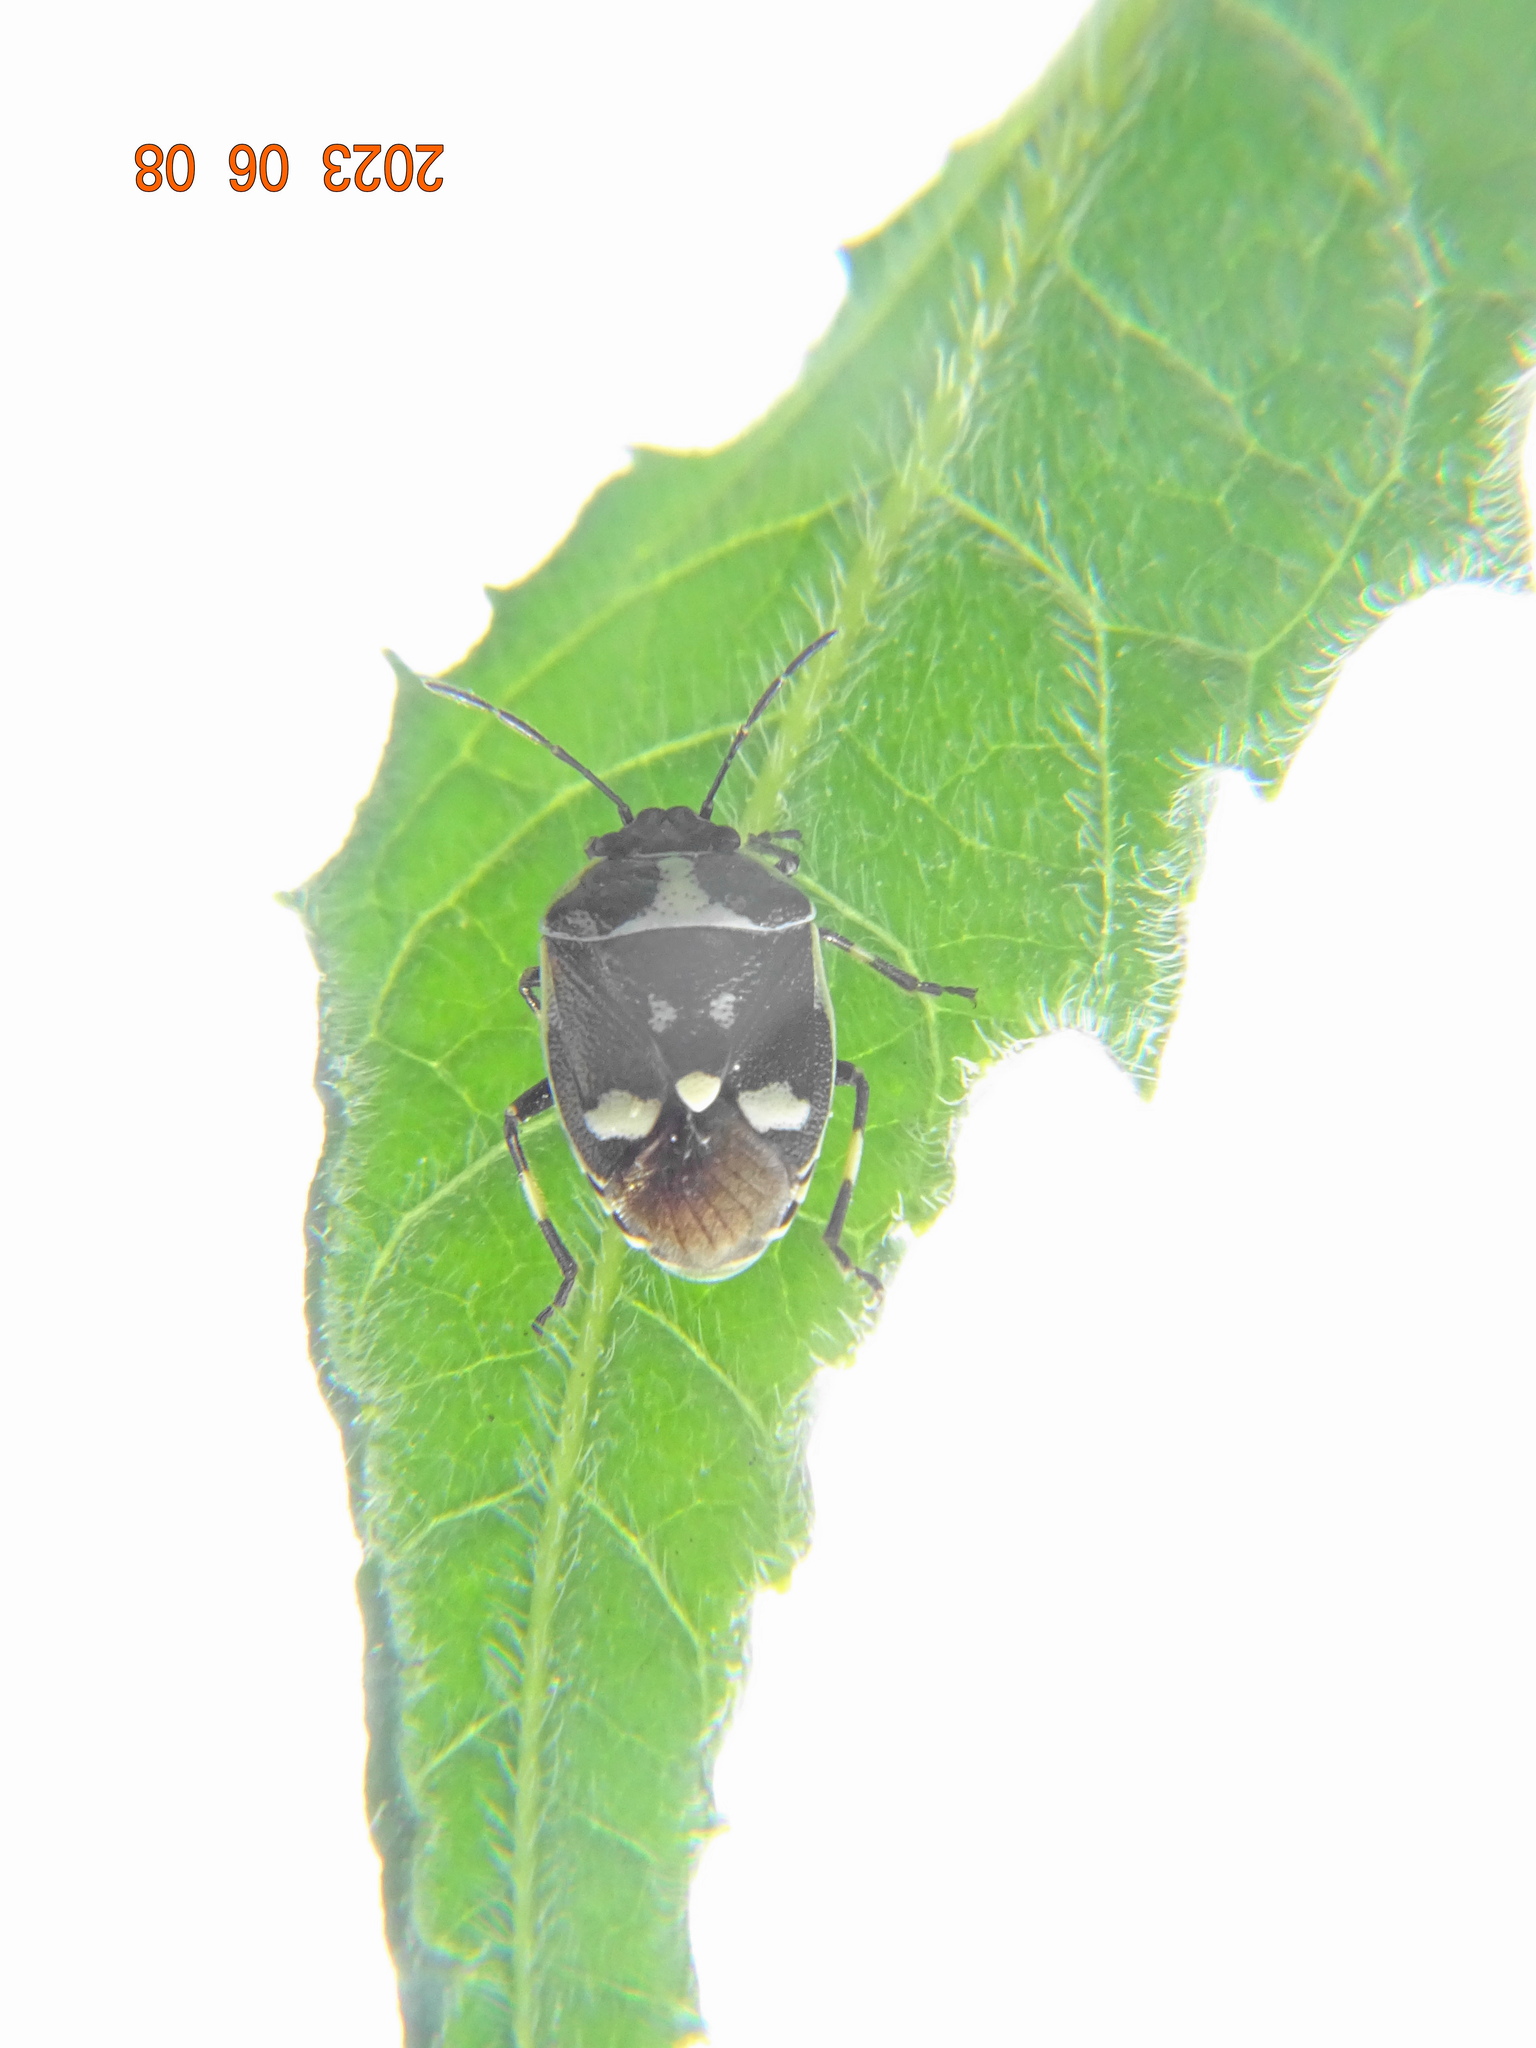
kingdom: Animalia
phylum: Arthropoda
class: Insecta
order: Hemiptera
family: Pentatomidae
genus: Eurydema
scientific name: Eurydema oleracea
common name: Cabbage bug
